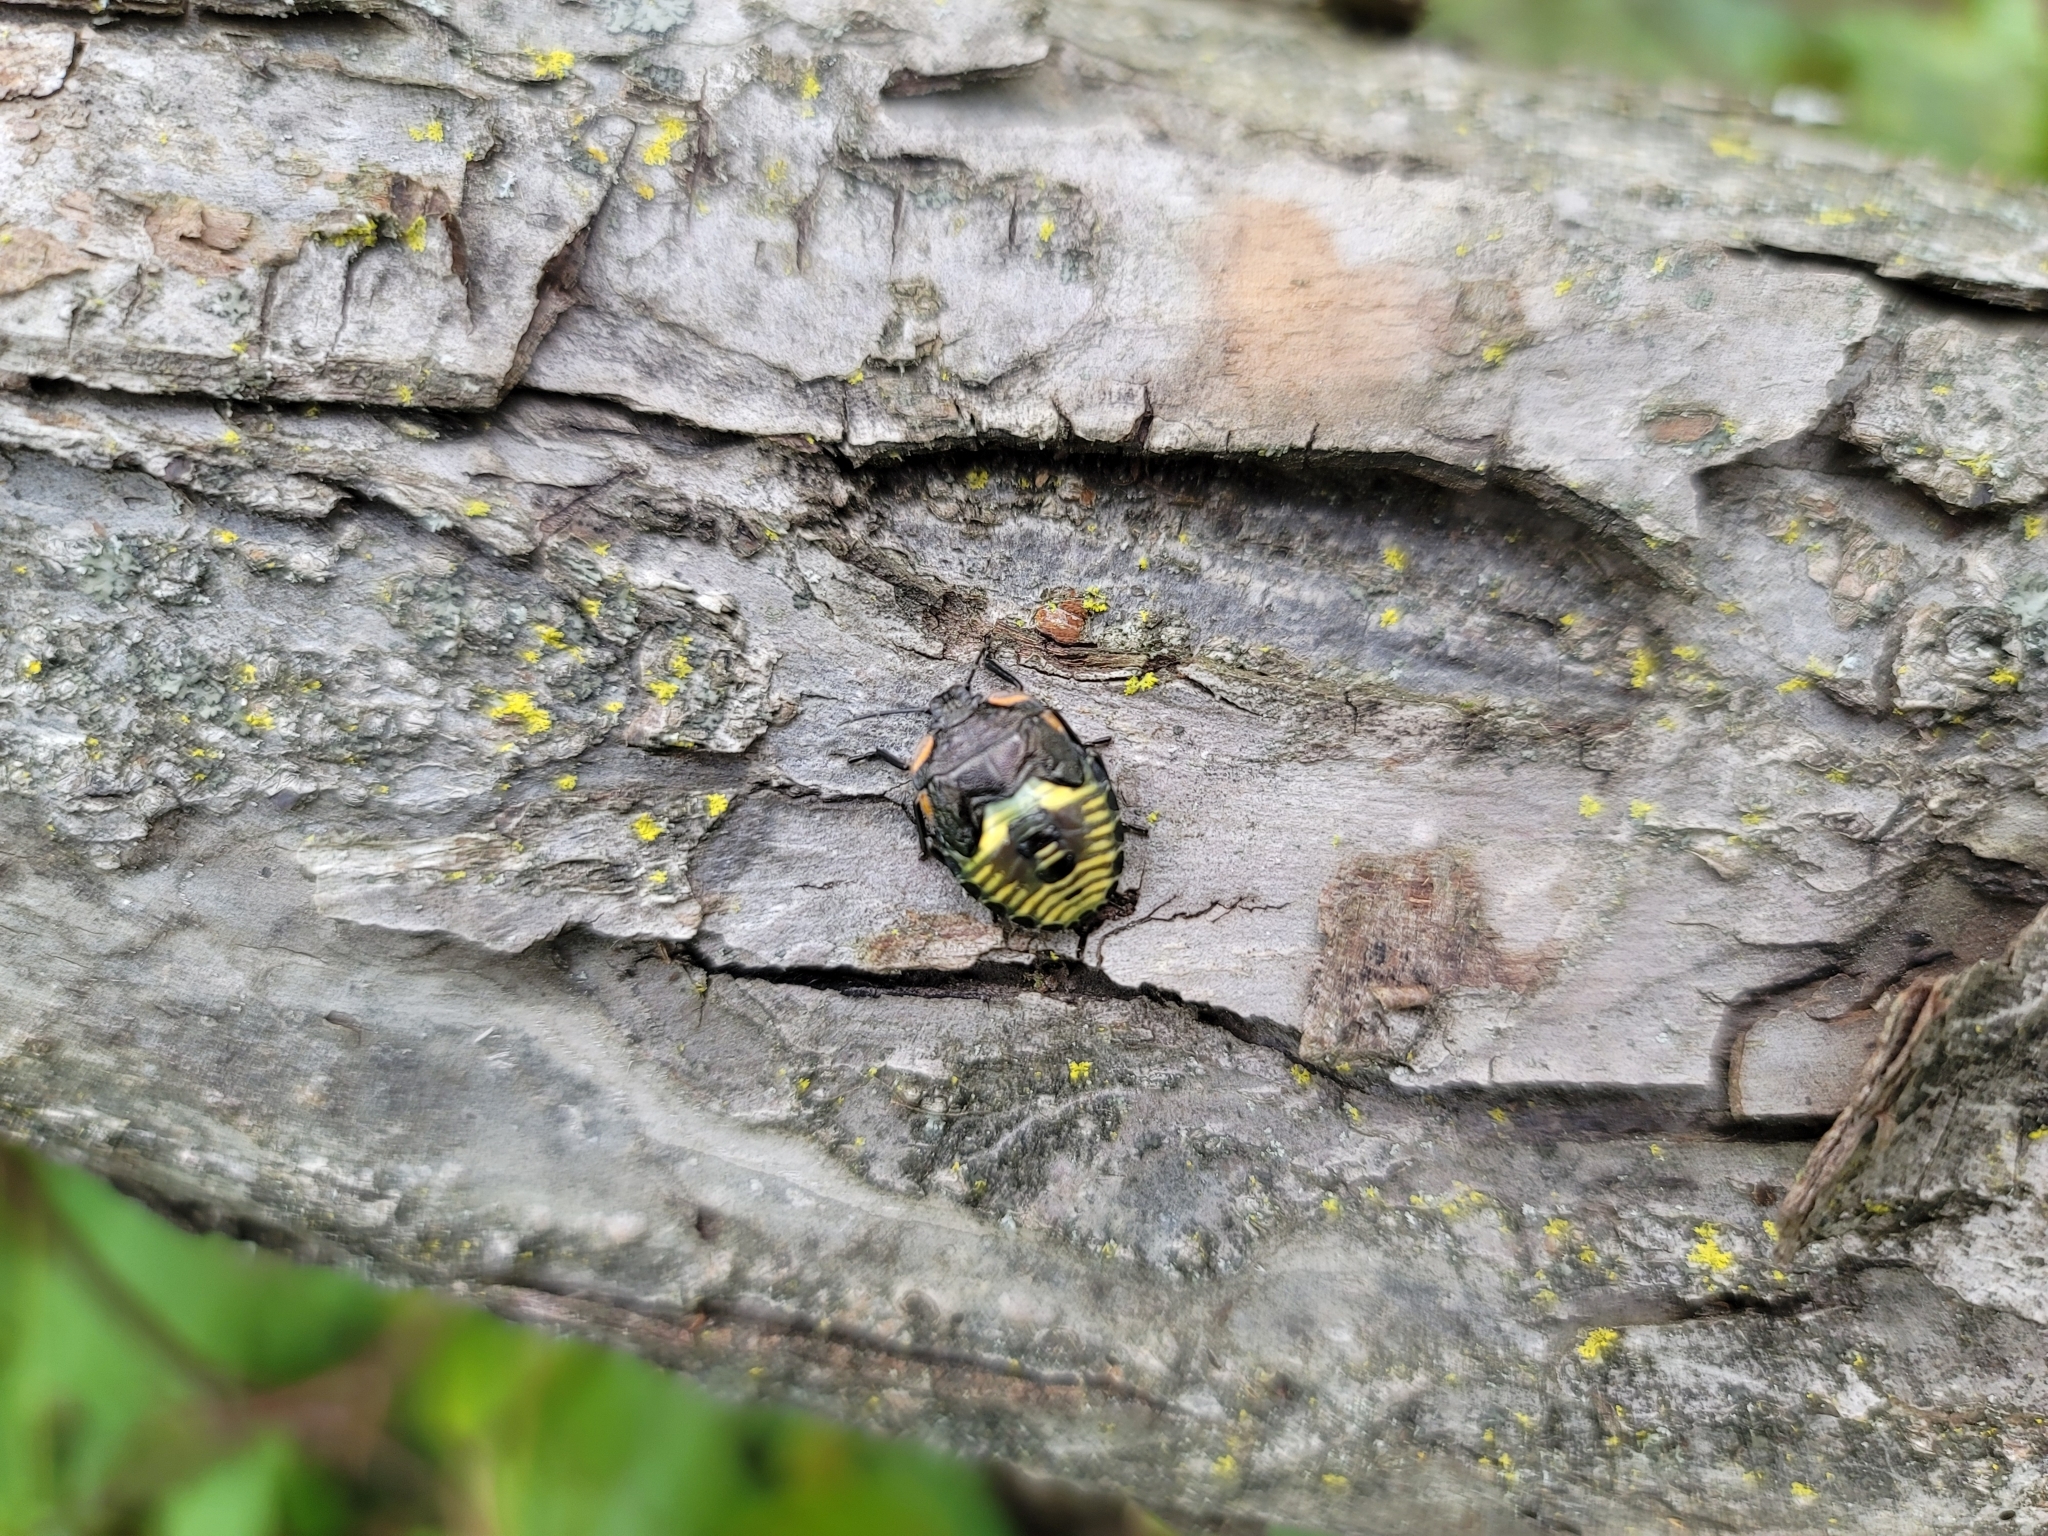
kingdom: Animalia
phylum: Arthropoda
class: Insecta
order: Hemiptera
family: Pentatomidae
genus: Chinavia
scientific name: Chinavia hilaris
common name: Green stink bug
